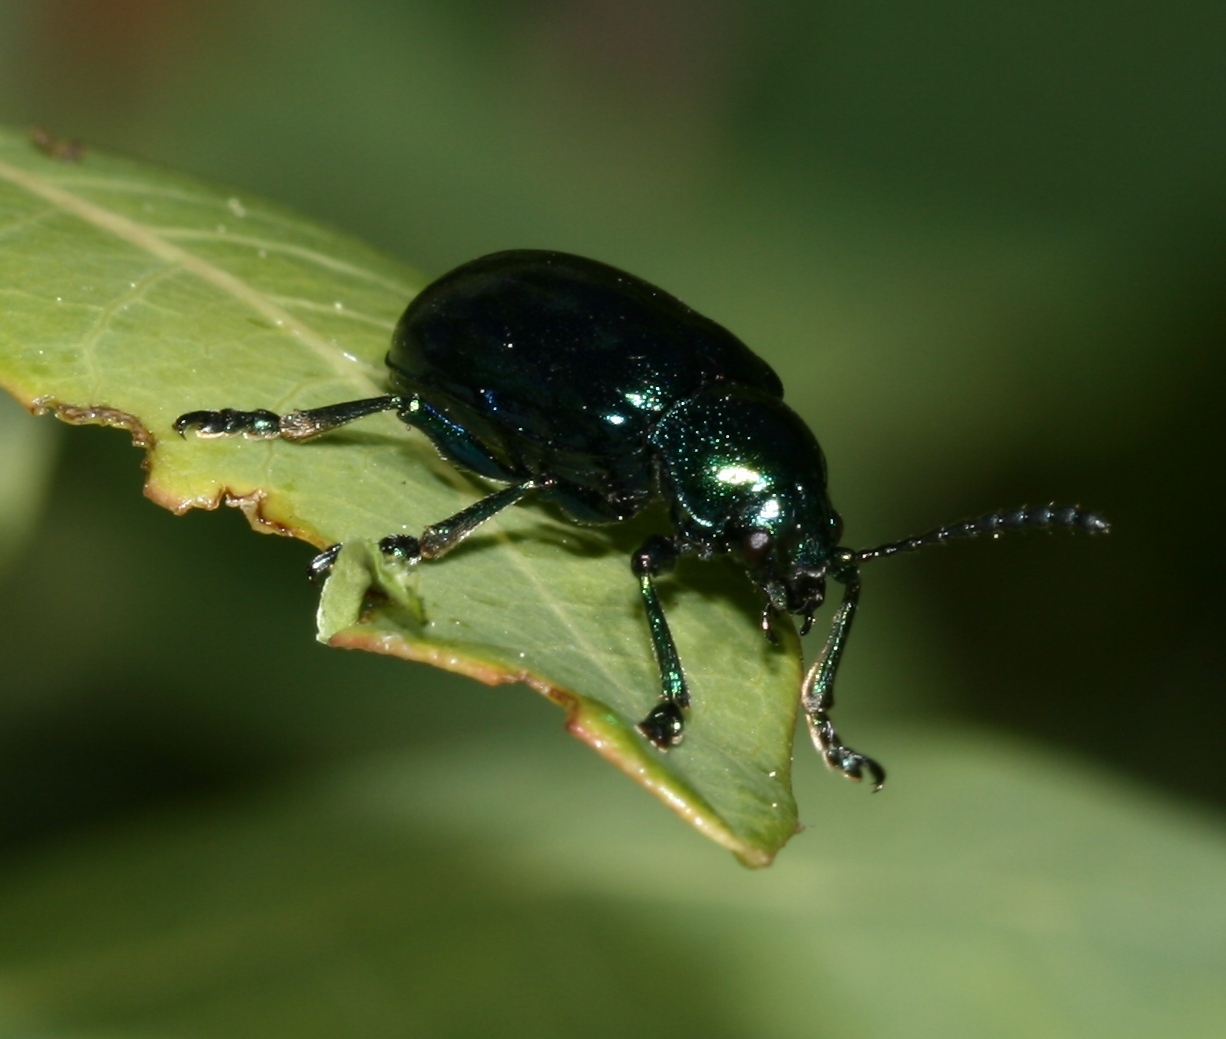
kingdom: Animalia
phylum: Arthropoda
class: Insecta
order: Coleoptera
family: Chrysomelidae
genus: Chrysochus
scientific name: Chrysochus cobaltinus
